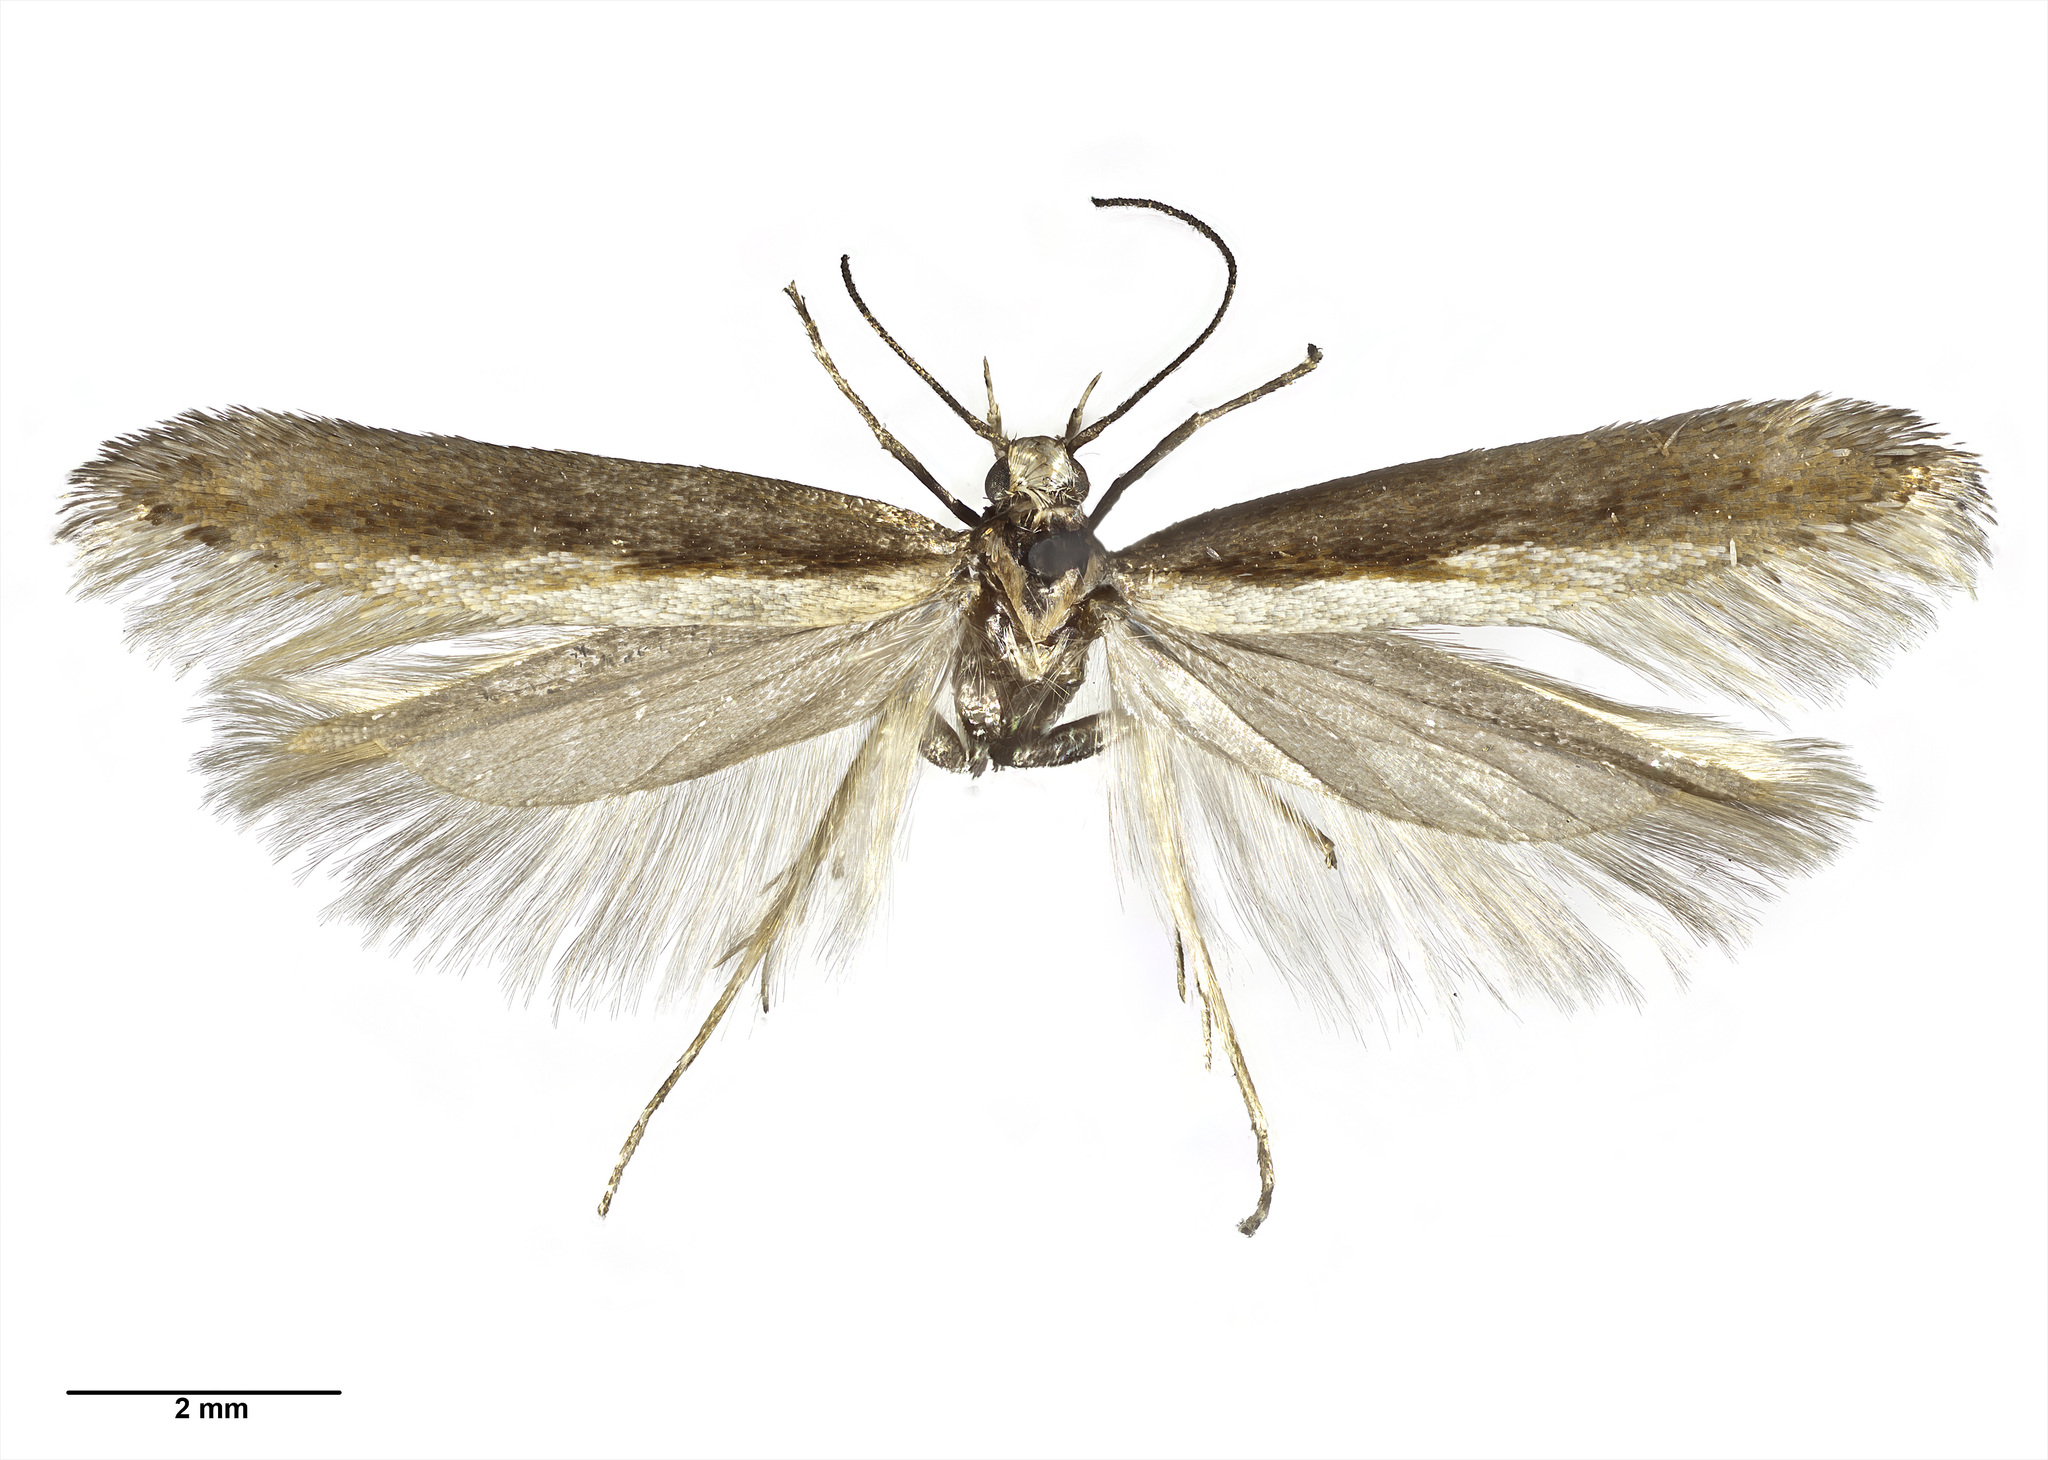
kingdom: Animalia
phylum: Arthropoda
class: Insecta
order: Lepidoptera
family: Gelechiidae
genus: Kiwaia
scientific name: Kiwaia contraria
